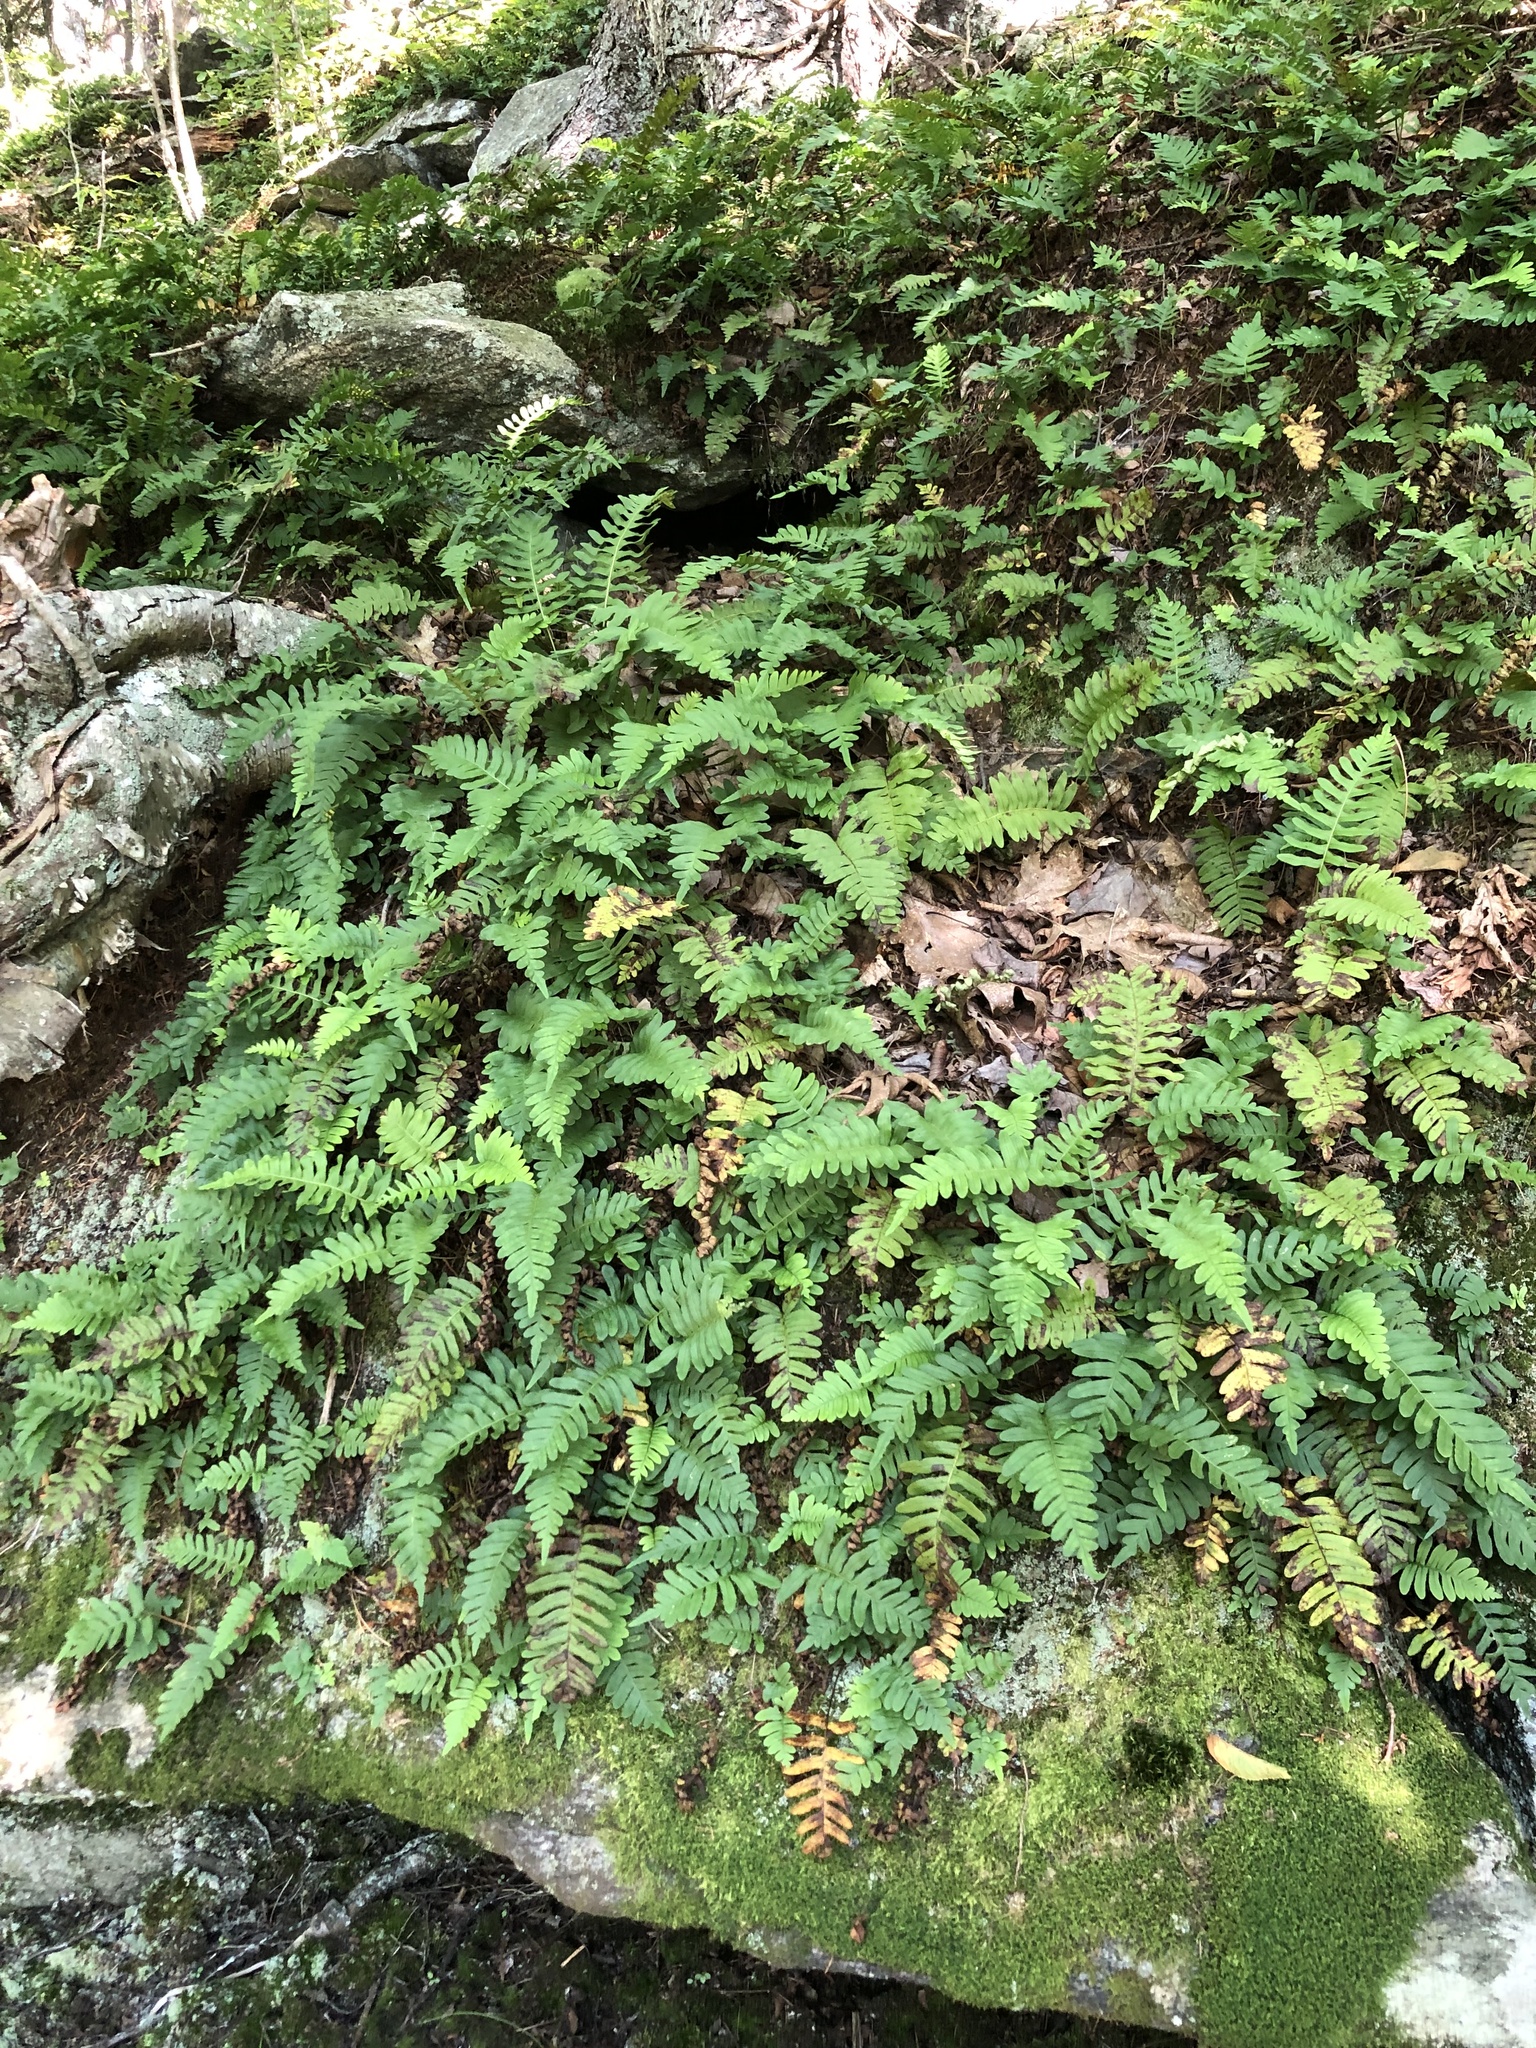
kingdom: Plantae
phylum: Tracheophyta
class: Polypodiopsida
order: Polypodiales
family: Polypodiaceae
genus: Polypodium
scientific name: Polypodium virginianum
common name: American wall fern
